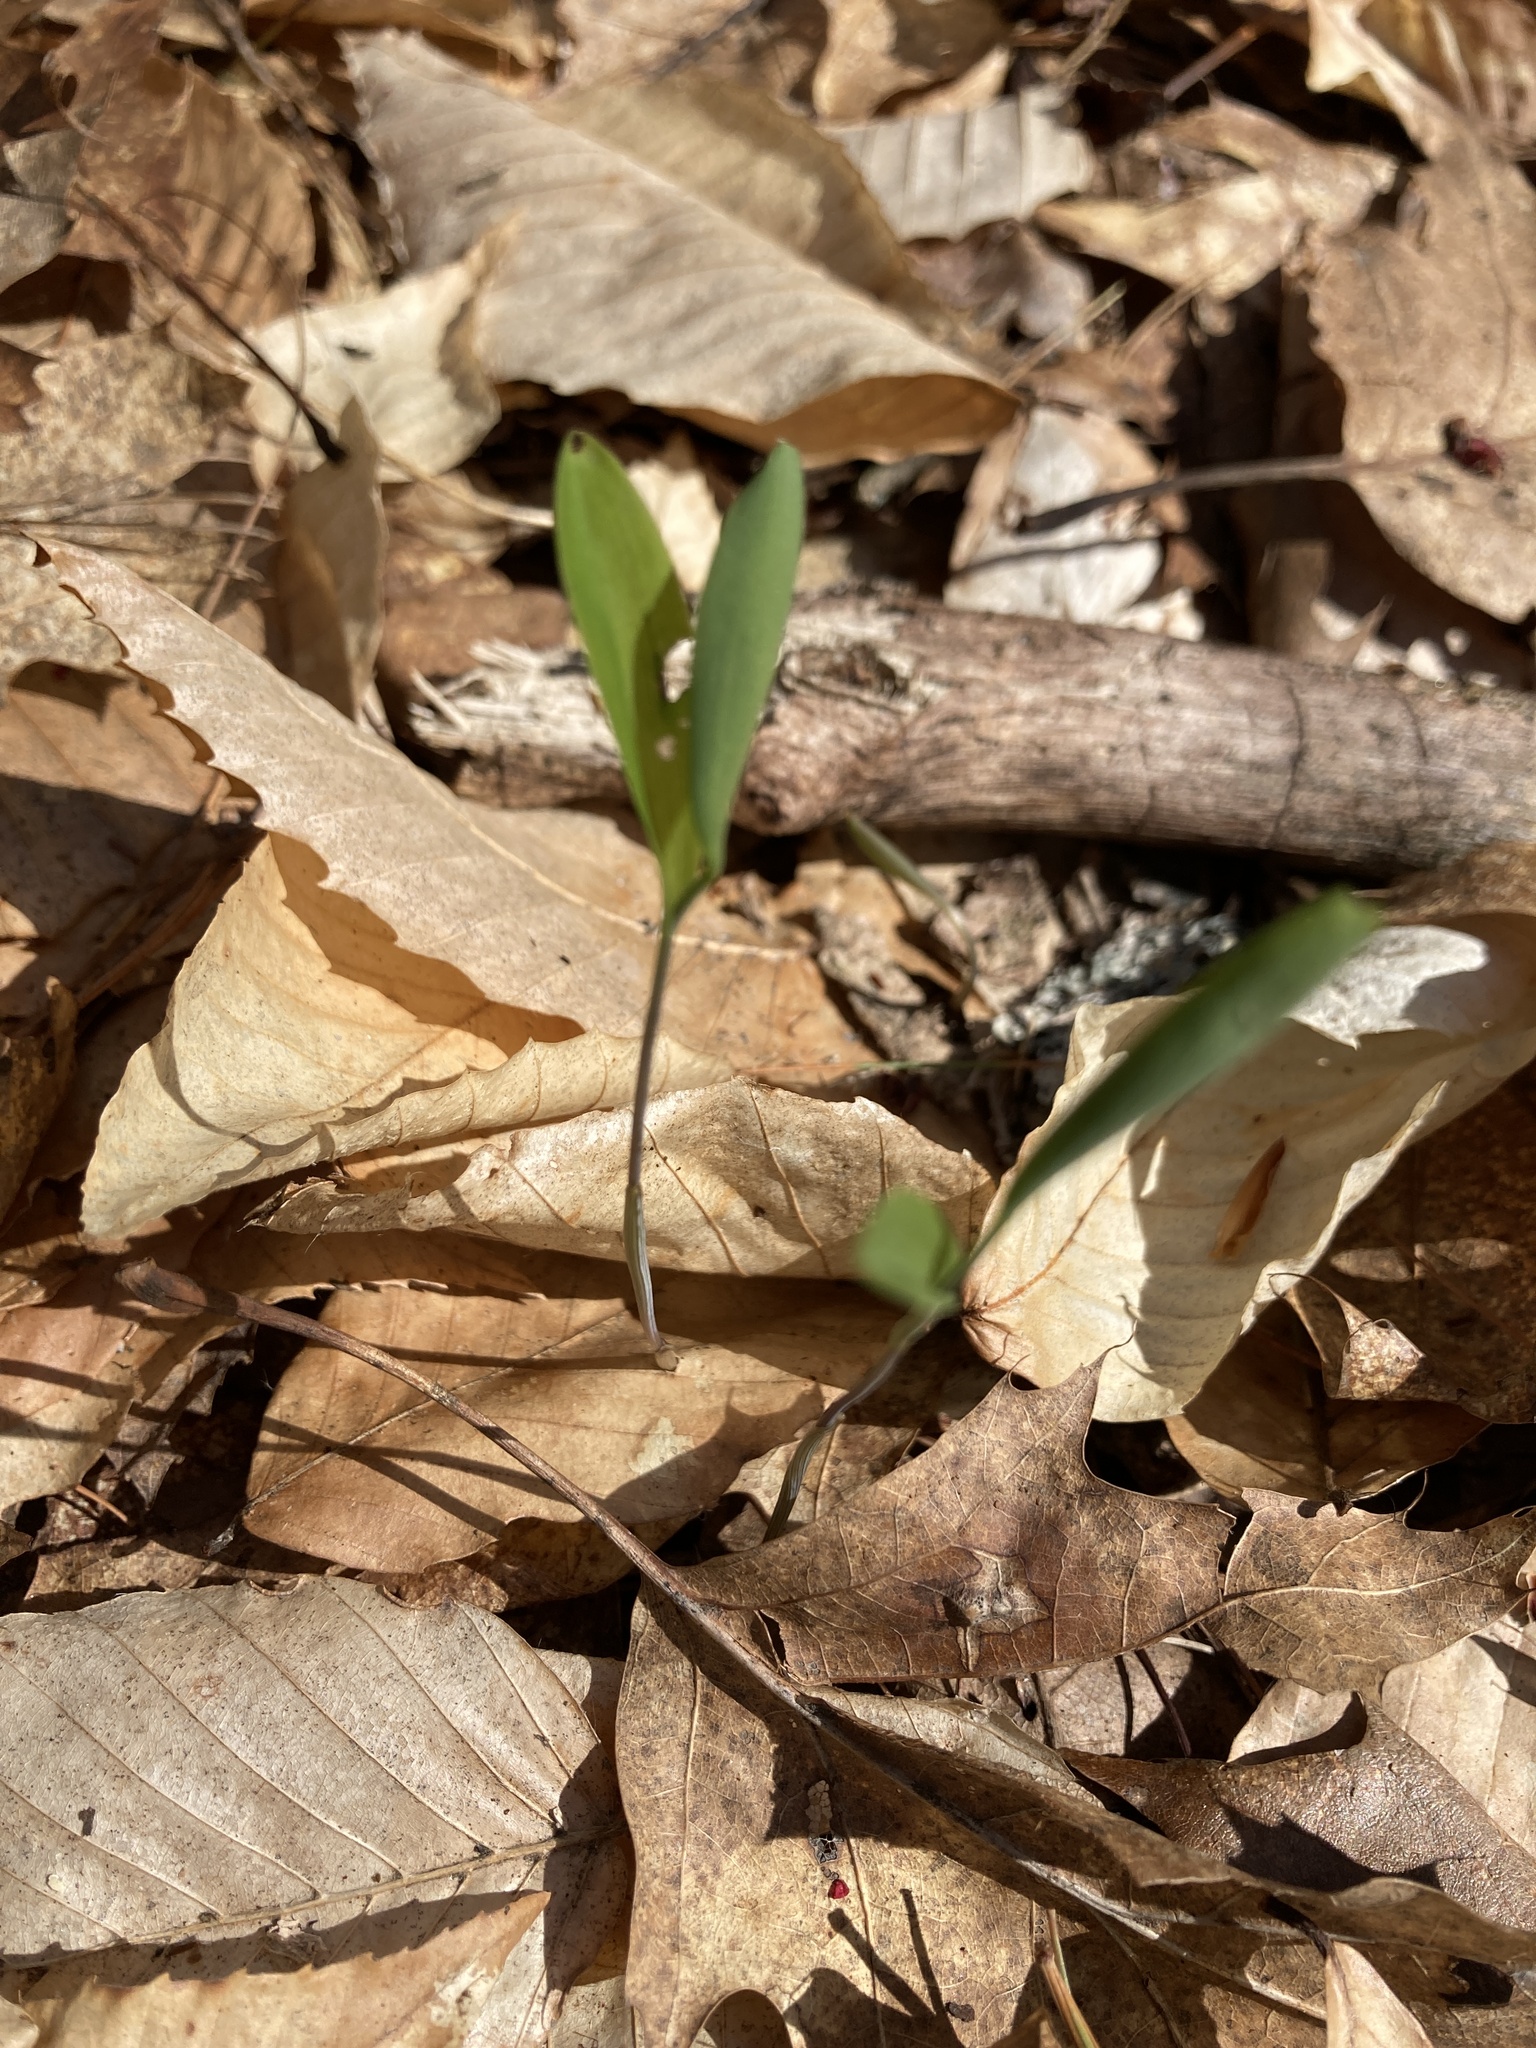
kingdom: Plantae
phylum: Tracheophyta
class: Liliopsida
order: Liliales
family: Colchicaceae
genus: Uvularia
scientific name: Uvularia sessilifolia
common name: Straw-lily
